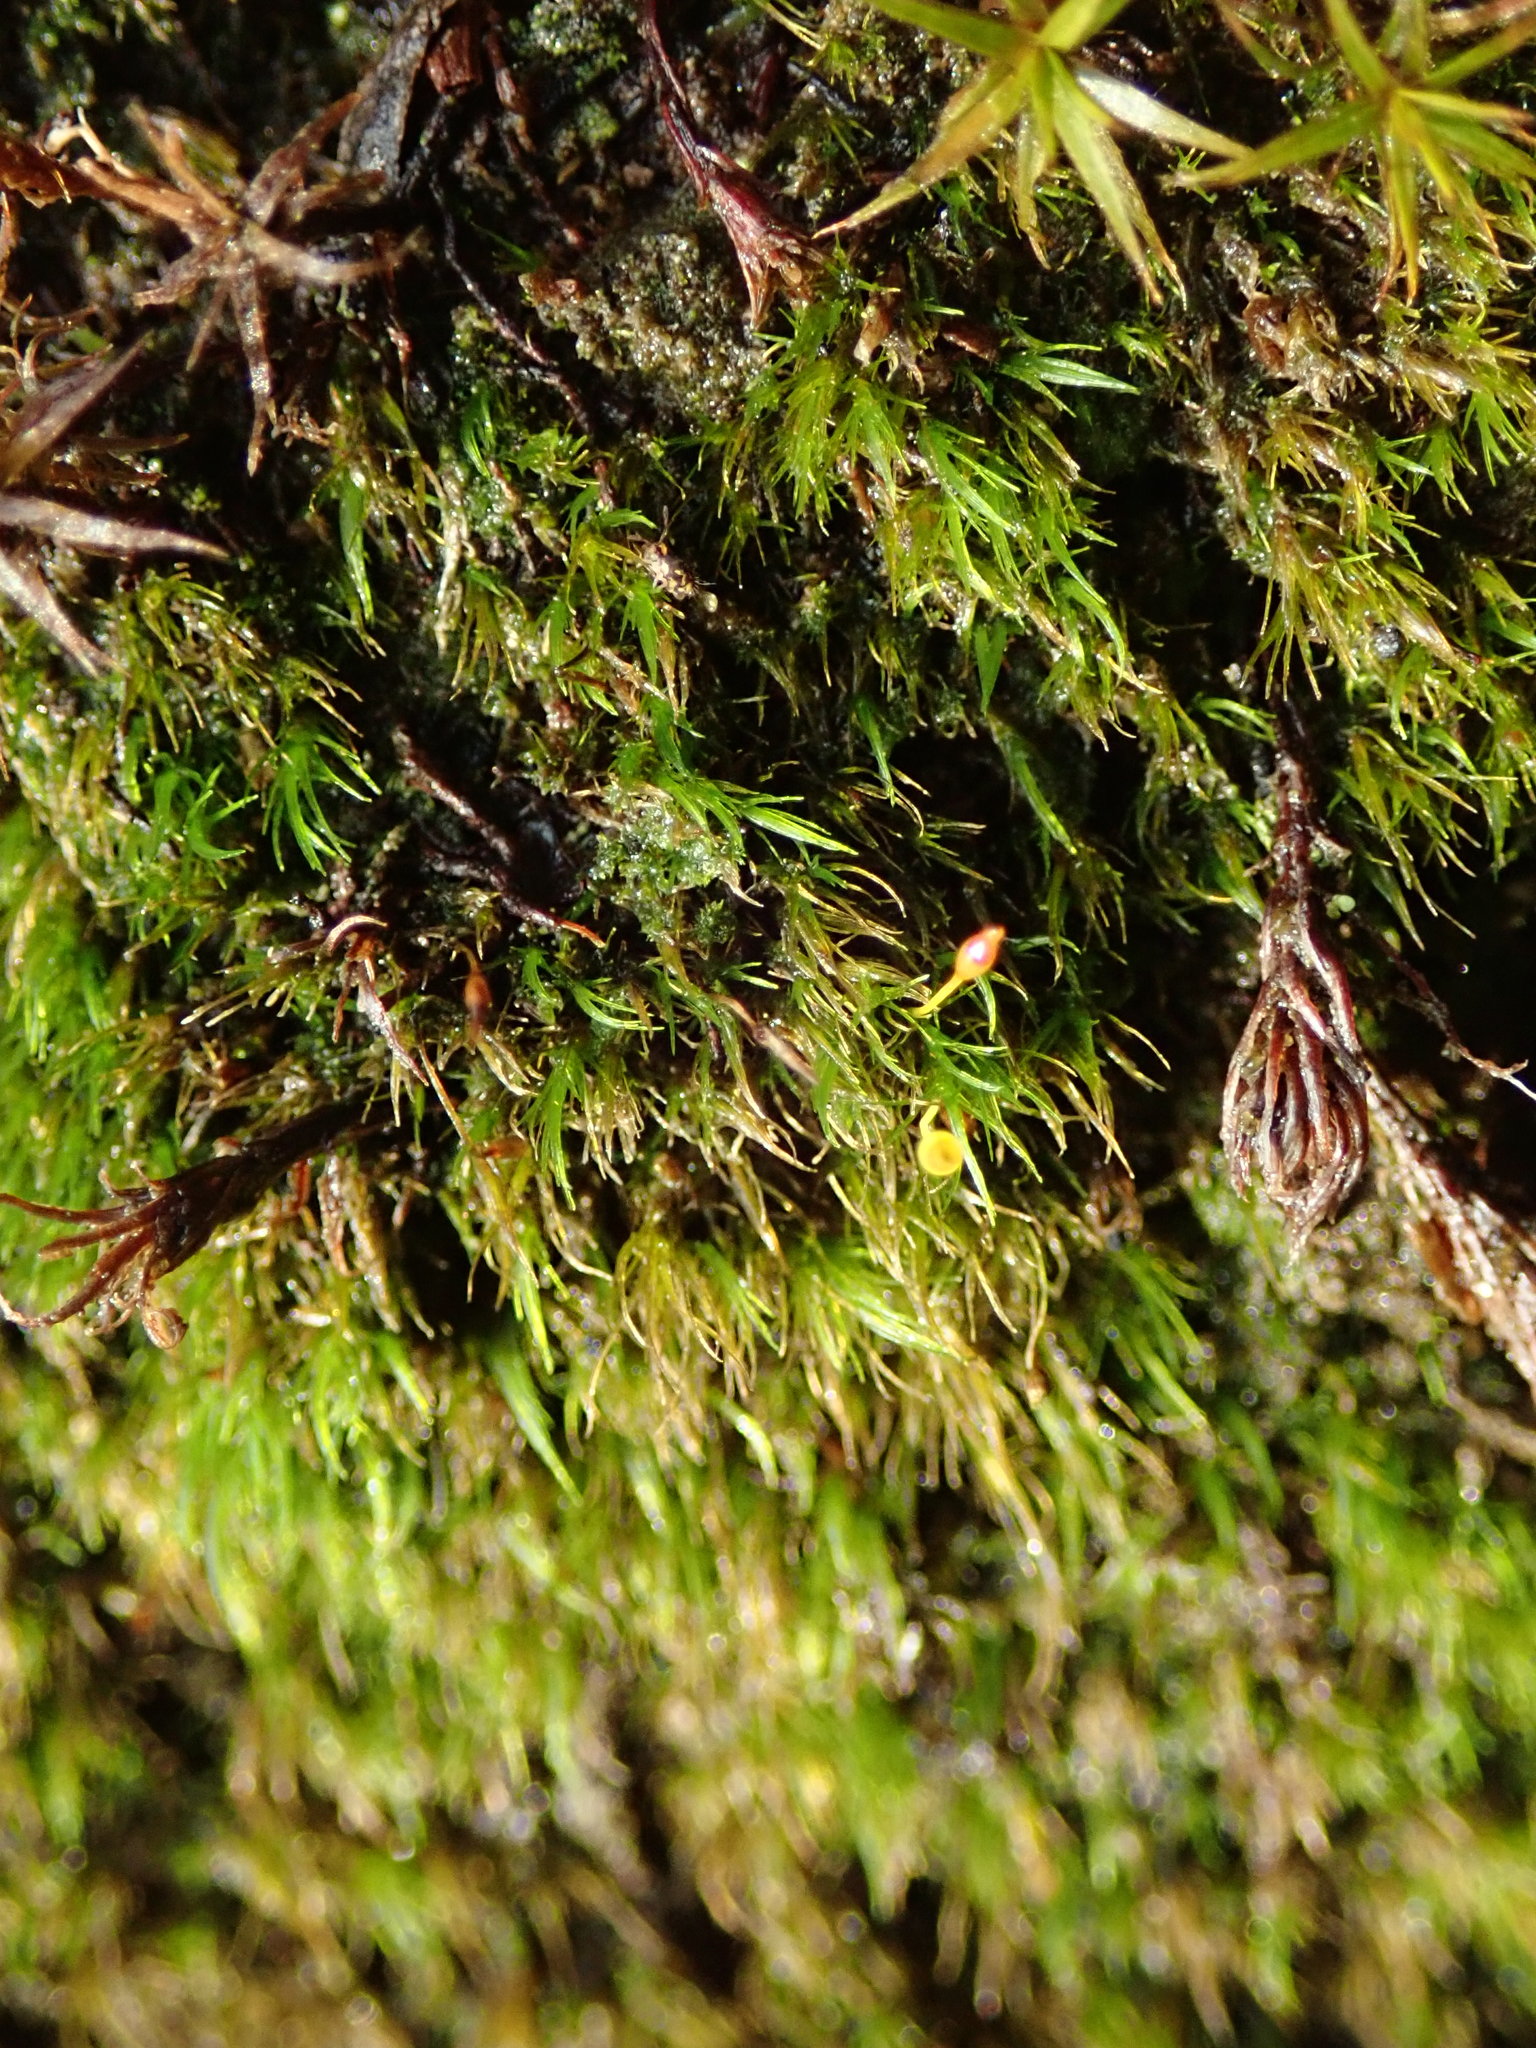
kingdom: Plantae
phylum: Bryophyta
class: Bryopsida
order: Dicranales
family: Dicranellaceae
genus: Dicranella
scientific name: Dicranella heteromalla
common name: Silky forklet moss
